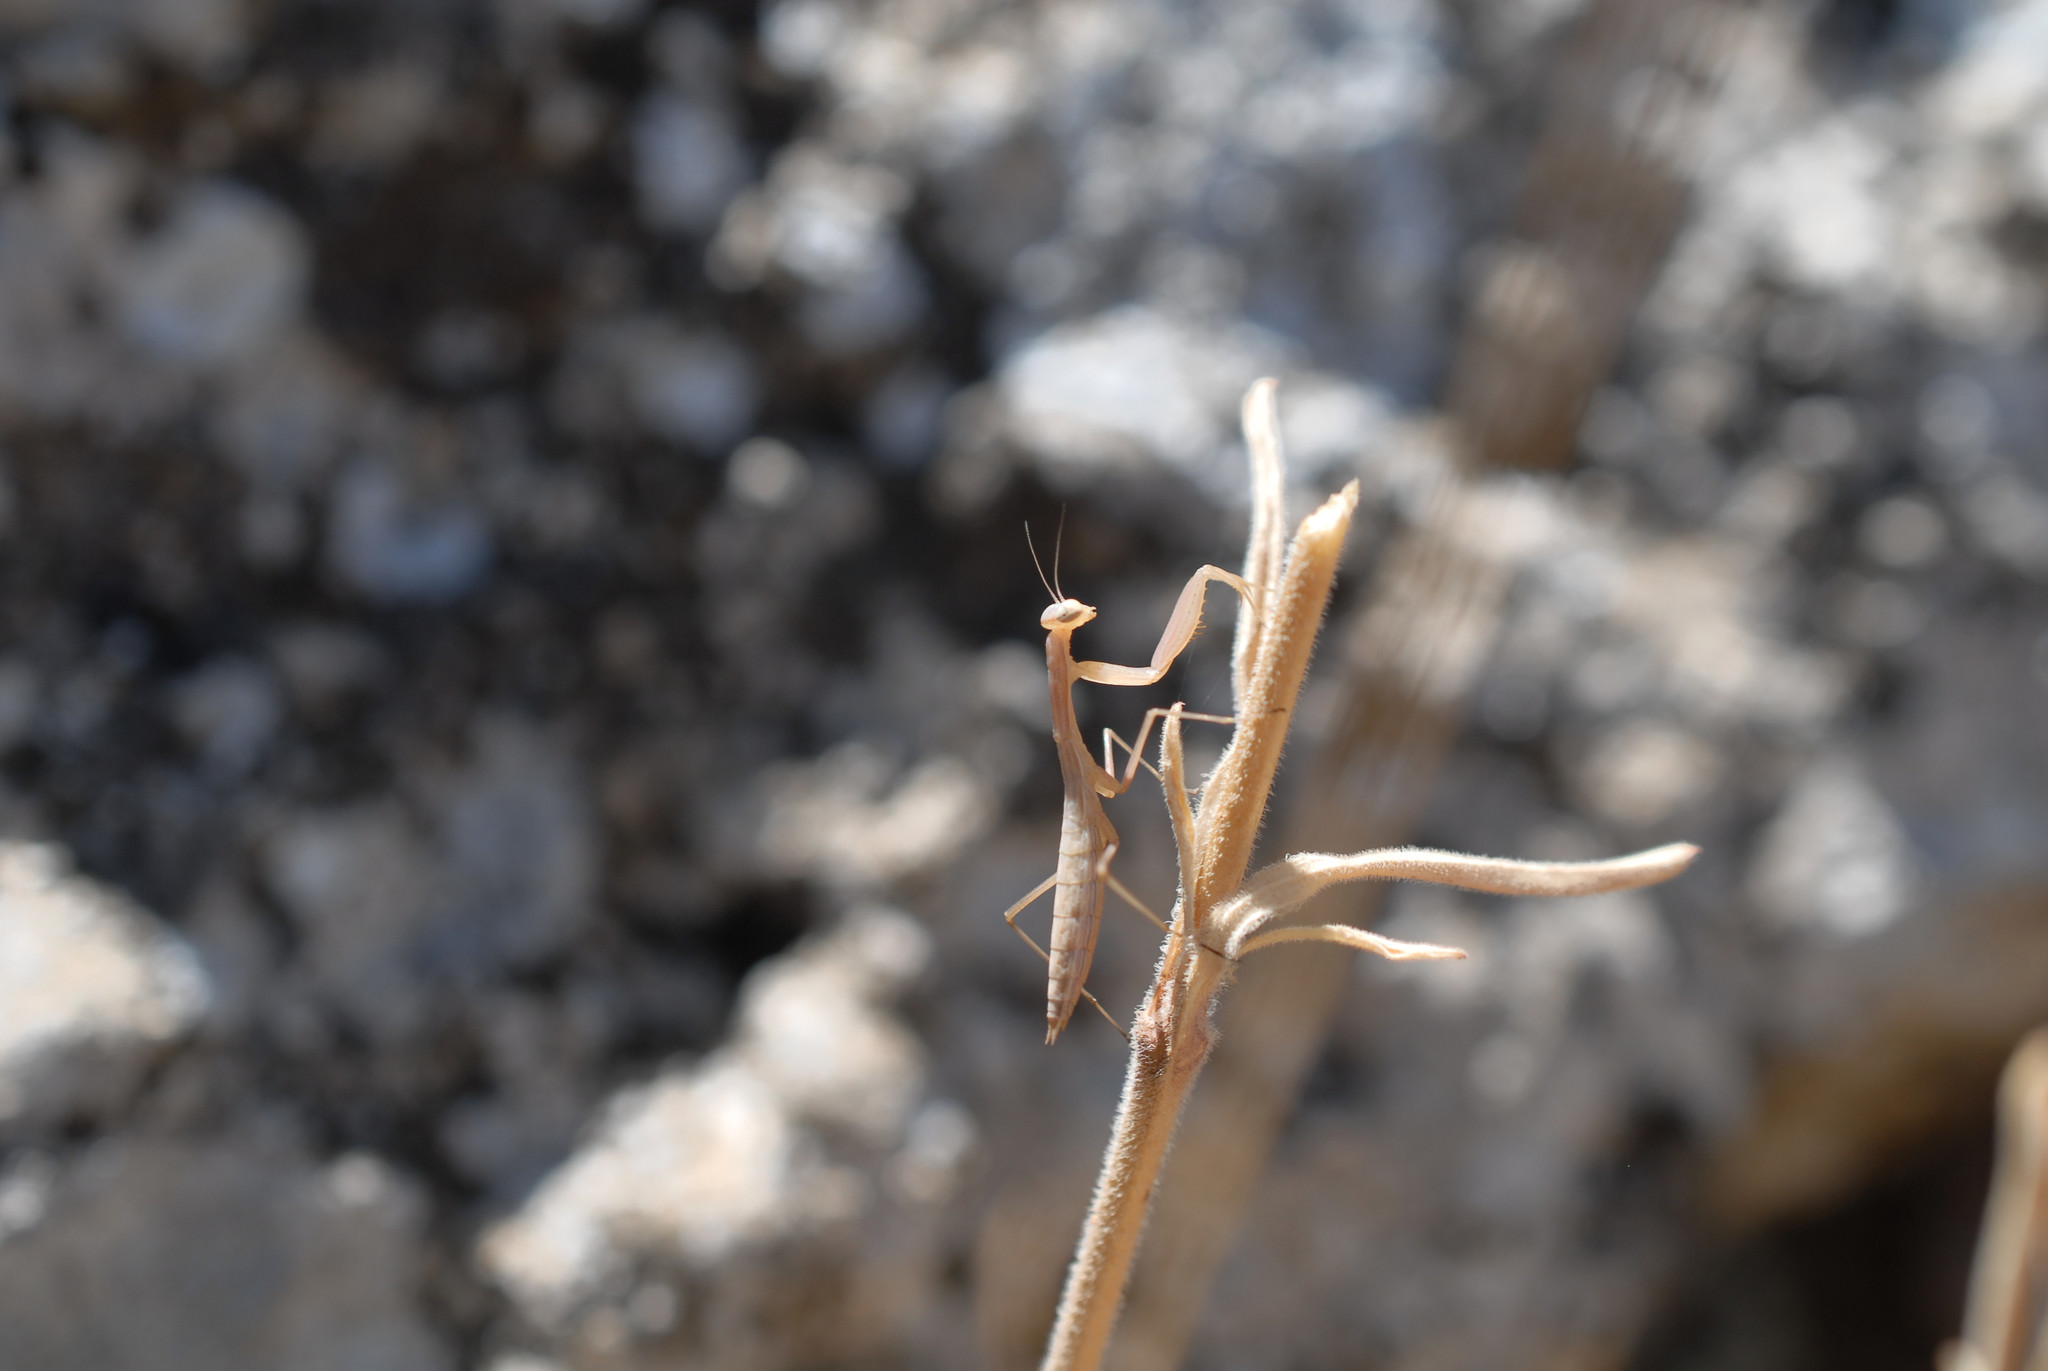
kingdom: Animalia
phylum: Arthropoda
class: Insecta
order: Mantodea
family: Mantidae
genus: Mantis
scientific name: Mantis religiosa
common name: Praying mantis
